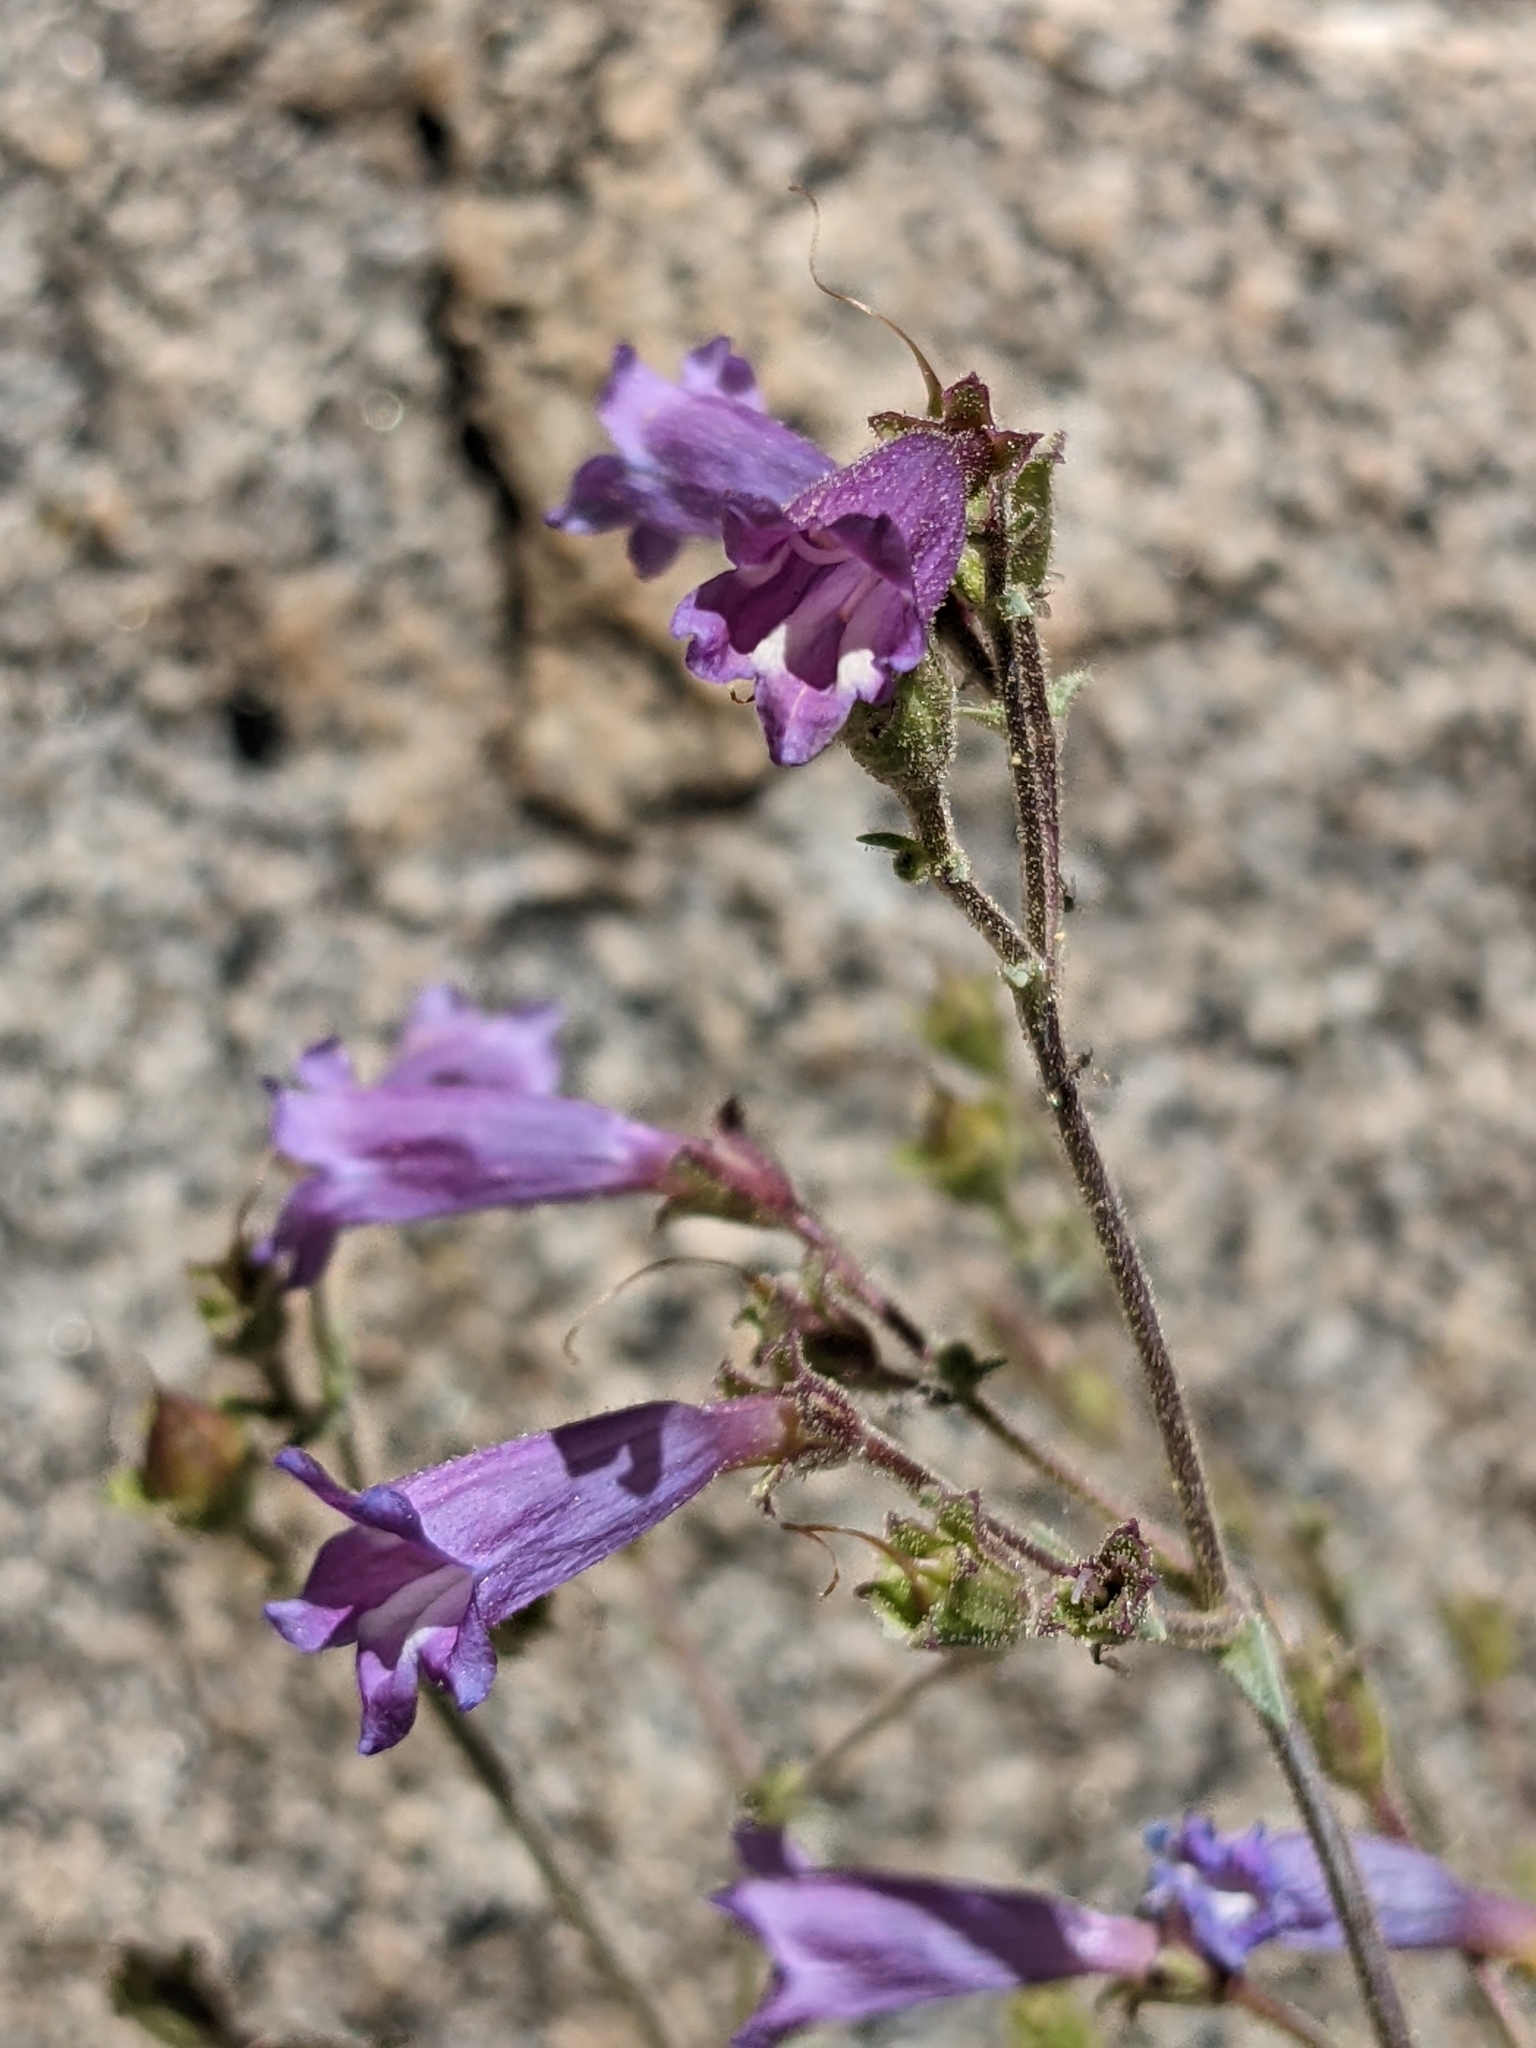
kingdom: Plantae
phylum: Tracheophyta
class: Magnoliopsida
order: Lamiales
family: Plantaginaceae
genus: Penstemon
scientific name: Penstemon caesius
